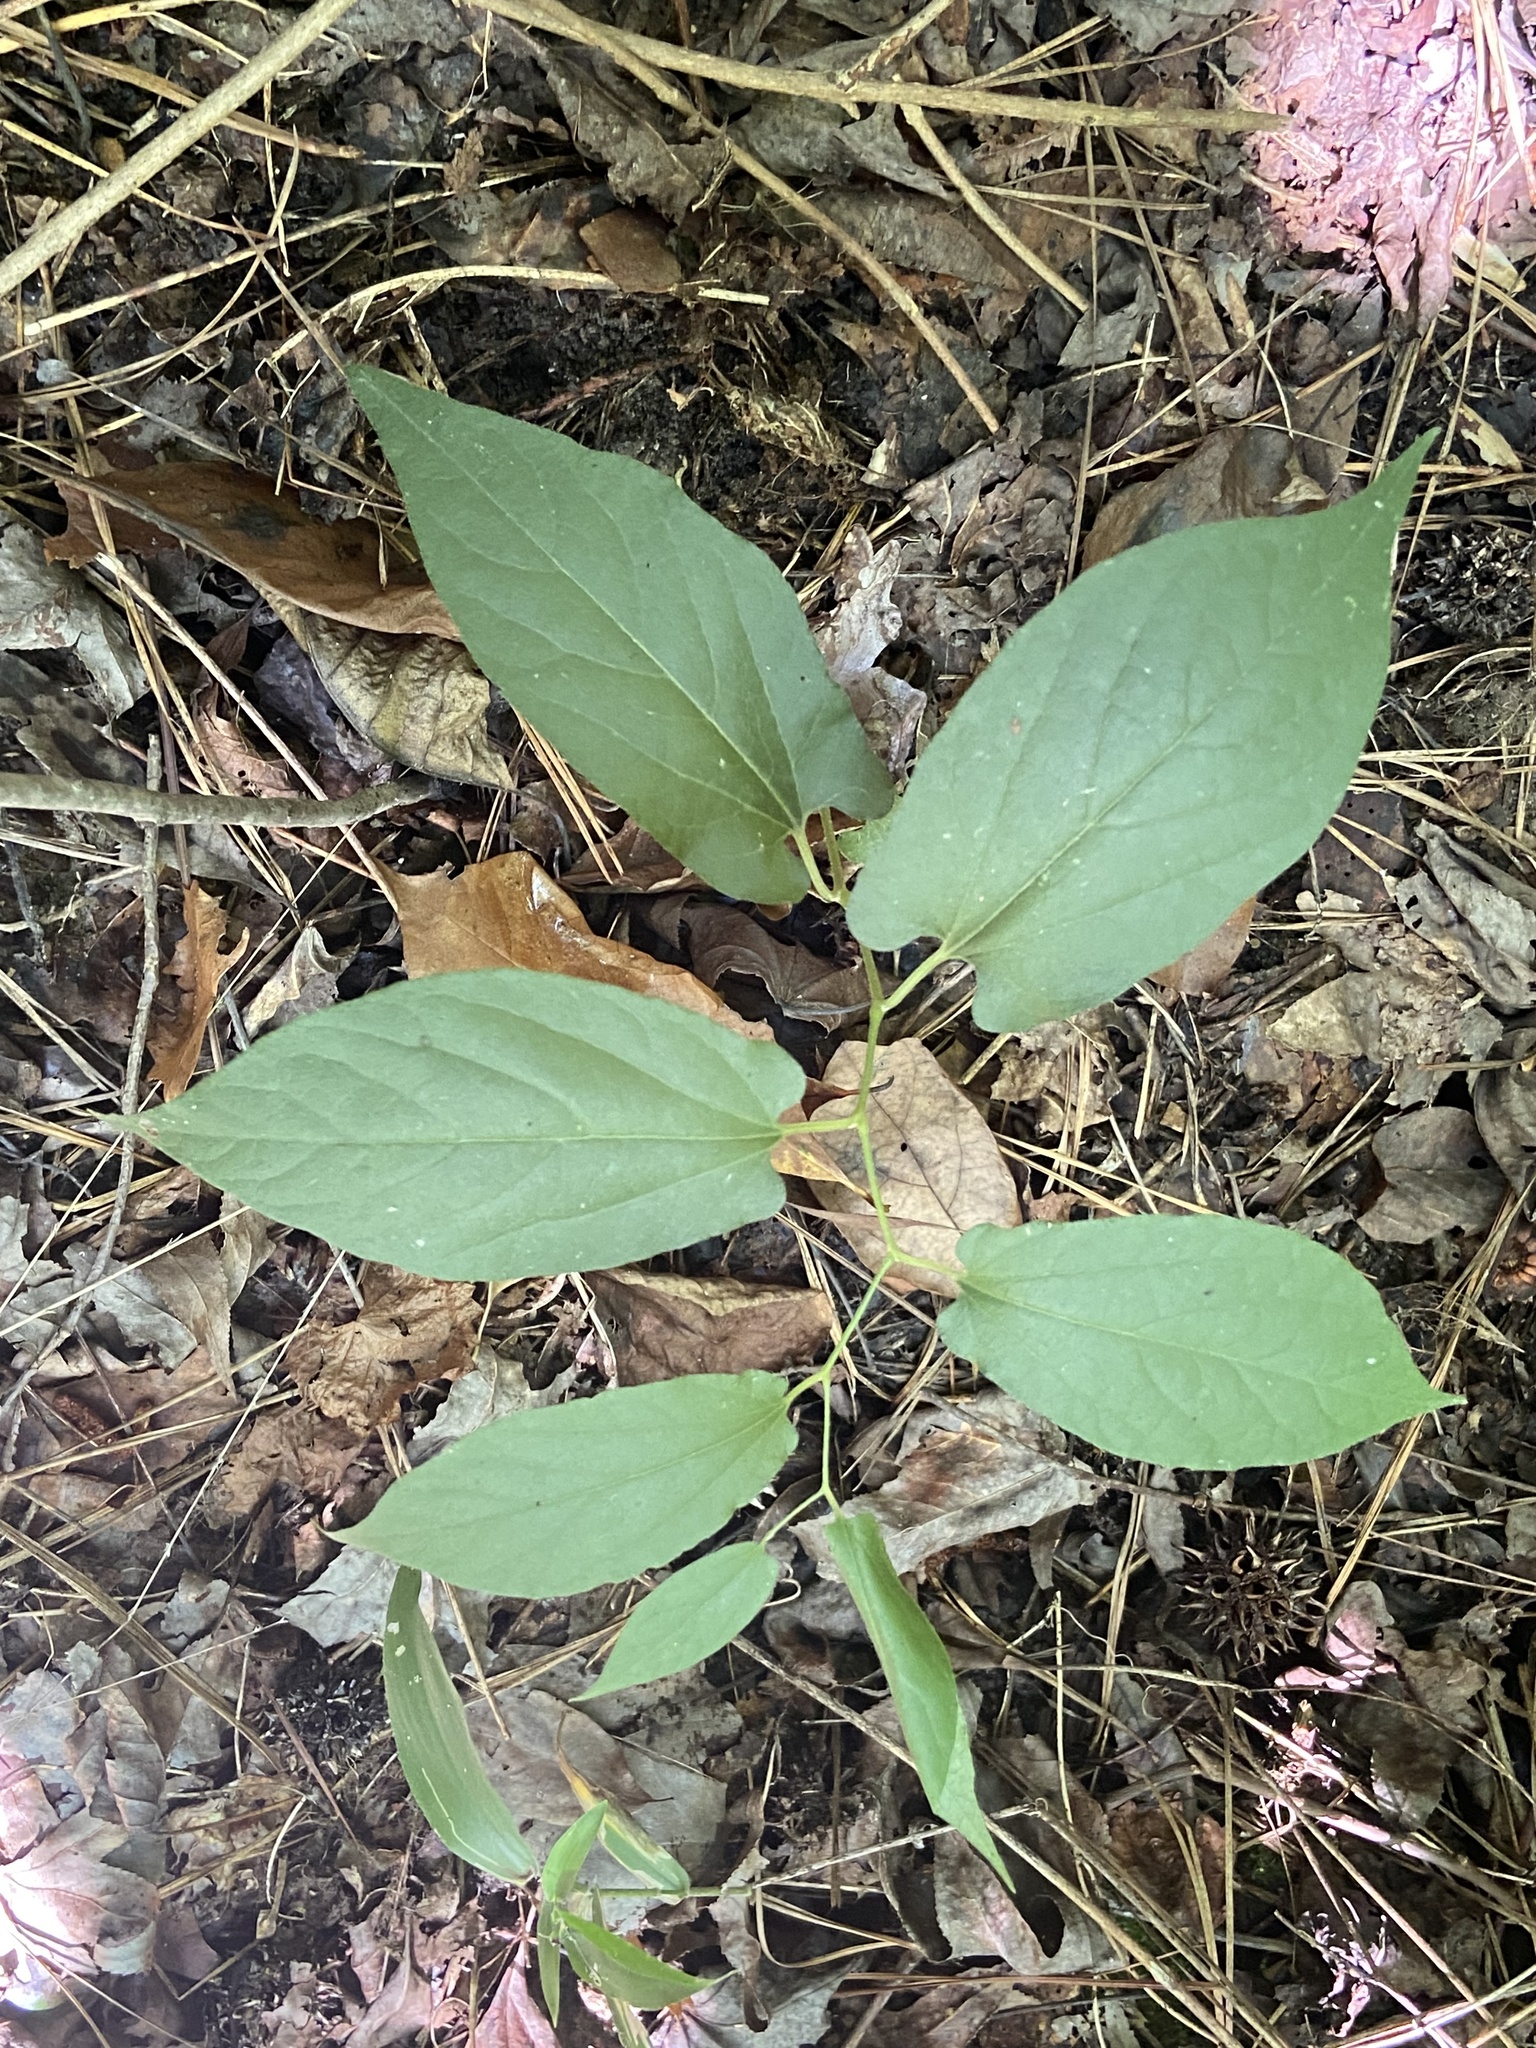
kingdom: Plantae
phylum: Tracheophyta
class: Magnoliopsida
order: Piperales
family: Aristolochiaceae
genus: Endodeca
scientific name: Endodeca serpentaria
